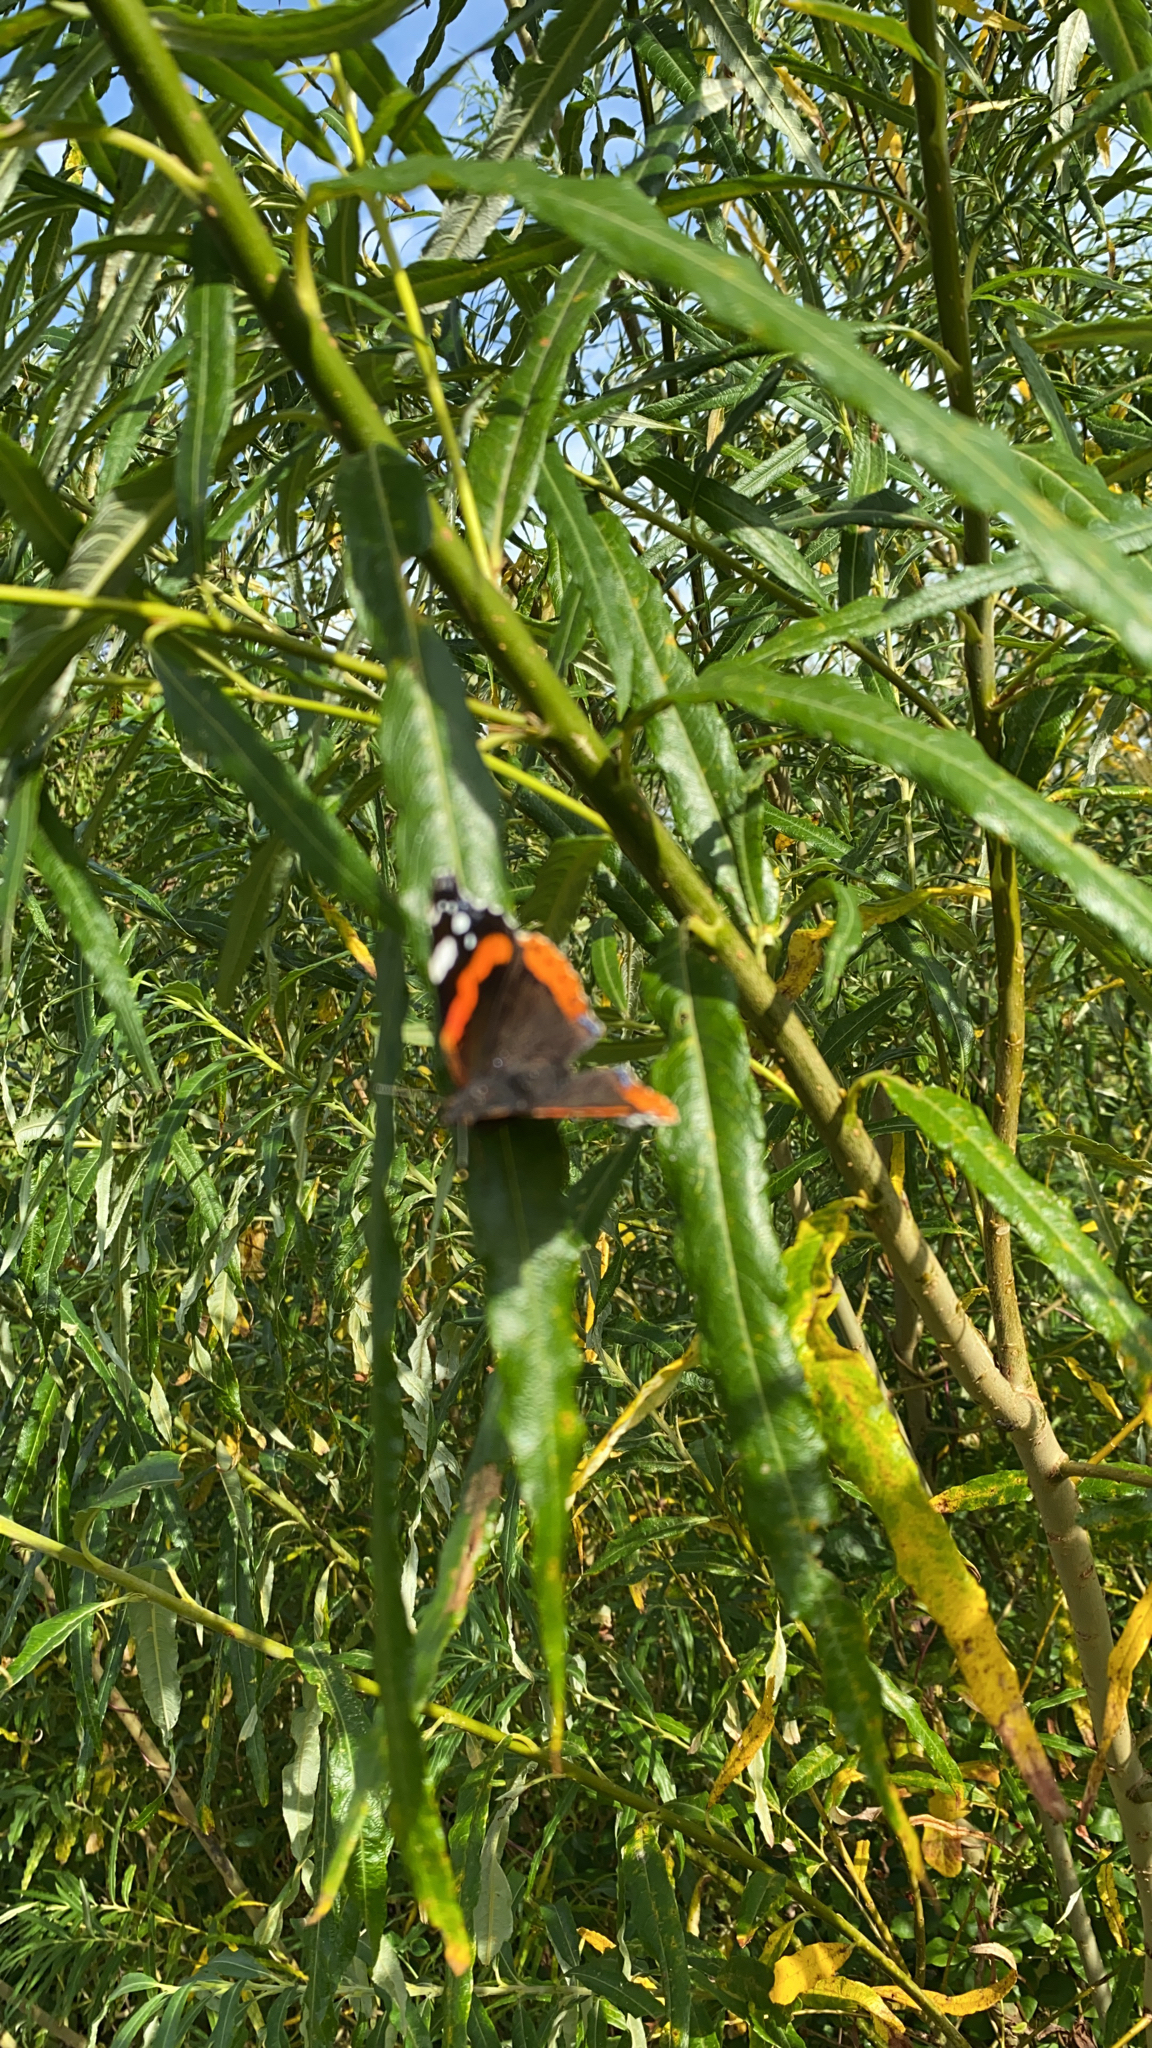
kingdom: Animalia
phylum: Arthropoda
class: Insecta
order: Lepidoptera
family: Nymphalidae
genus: Vanessa
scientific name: Vanessa atalanta
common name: Red admiral
